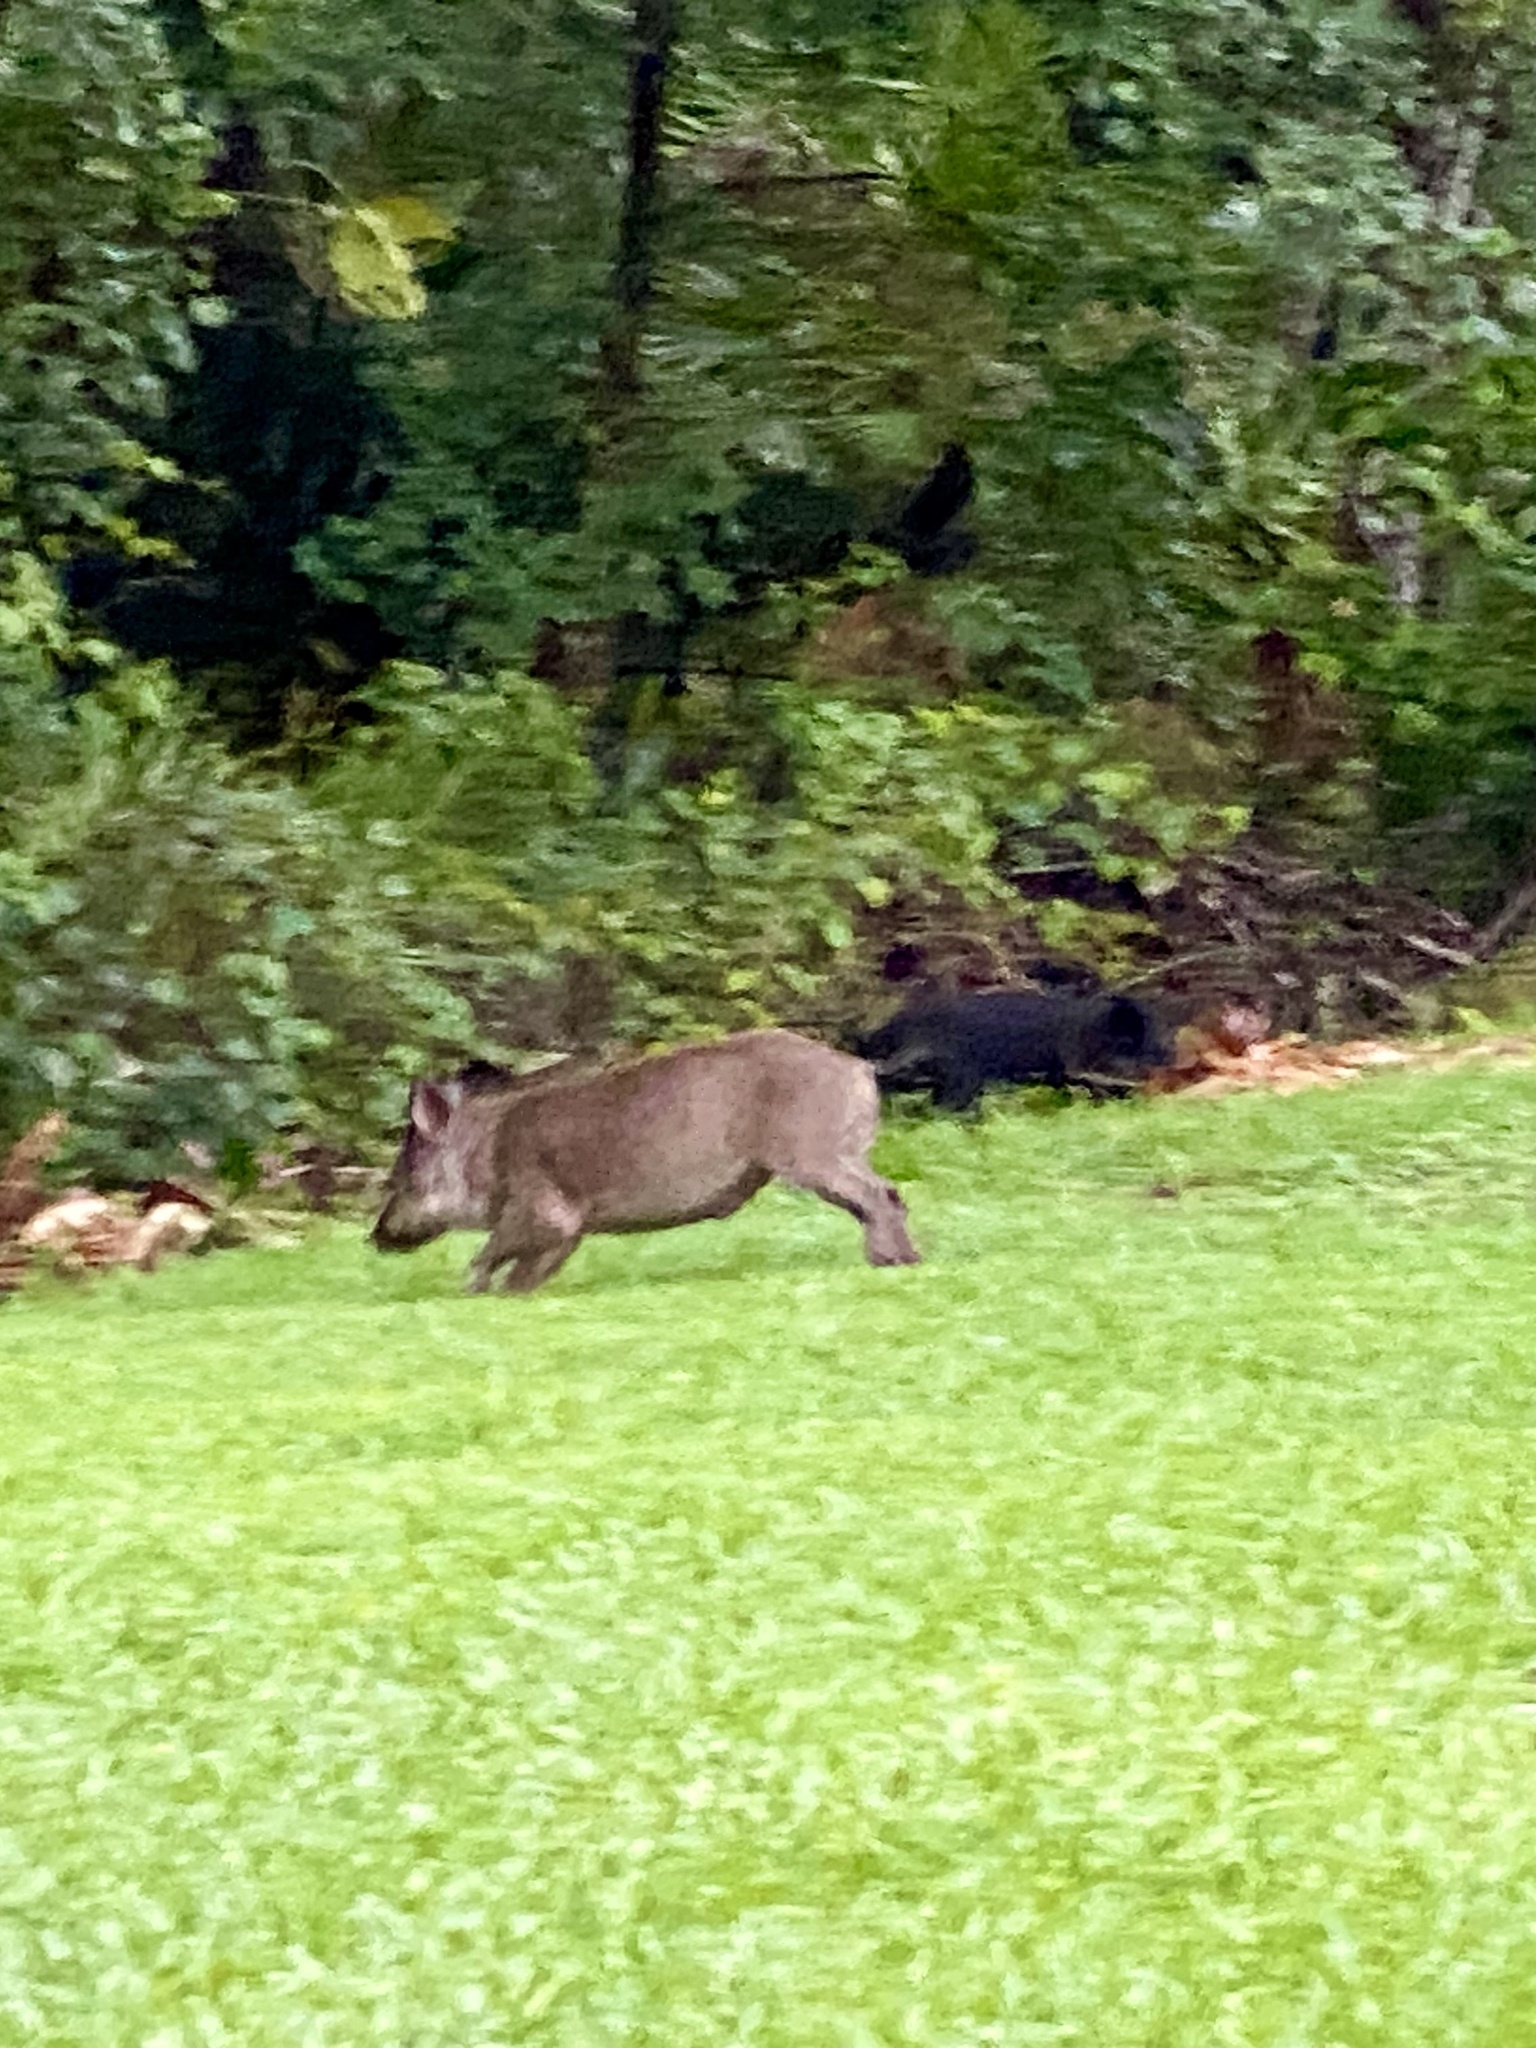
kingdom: Animalia
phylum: Chordata
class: Mammalia
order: Artiodactyla
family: Suidae
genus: Sus
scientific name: Sus scrofa
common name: Wild boar
